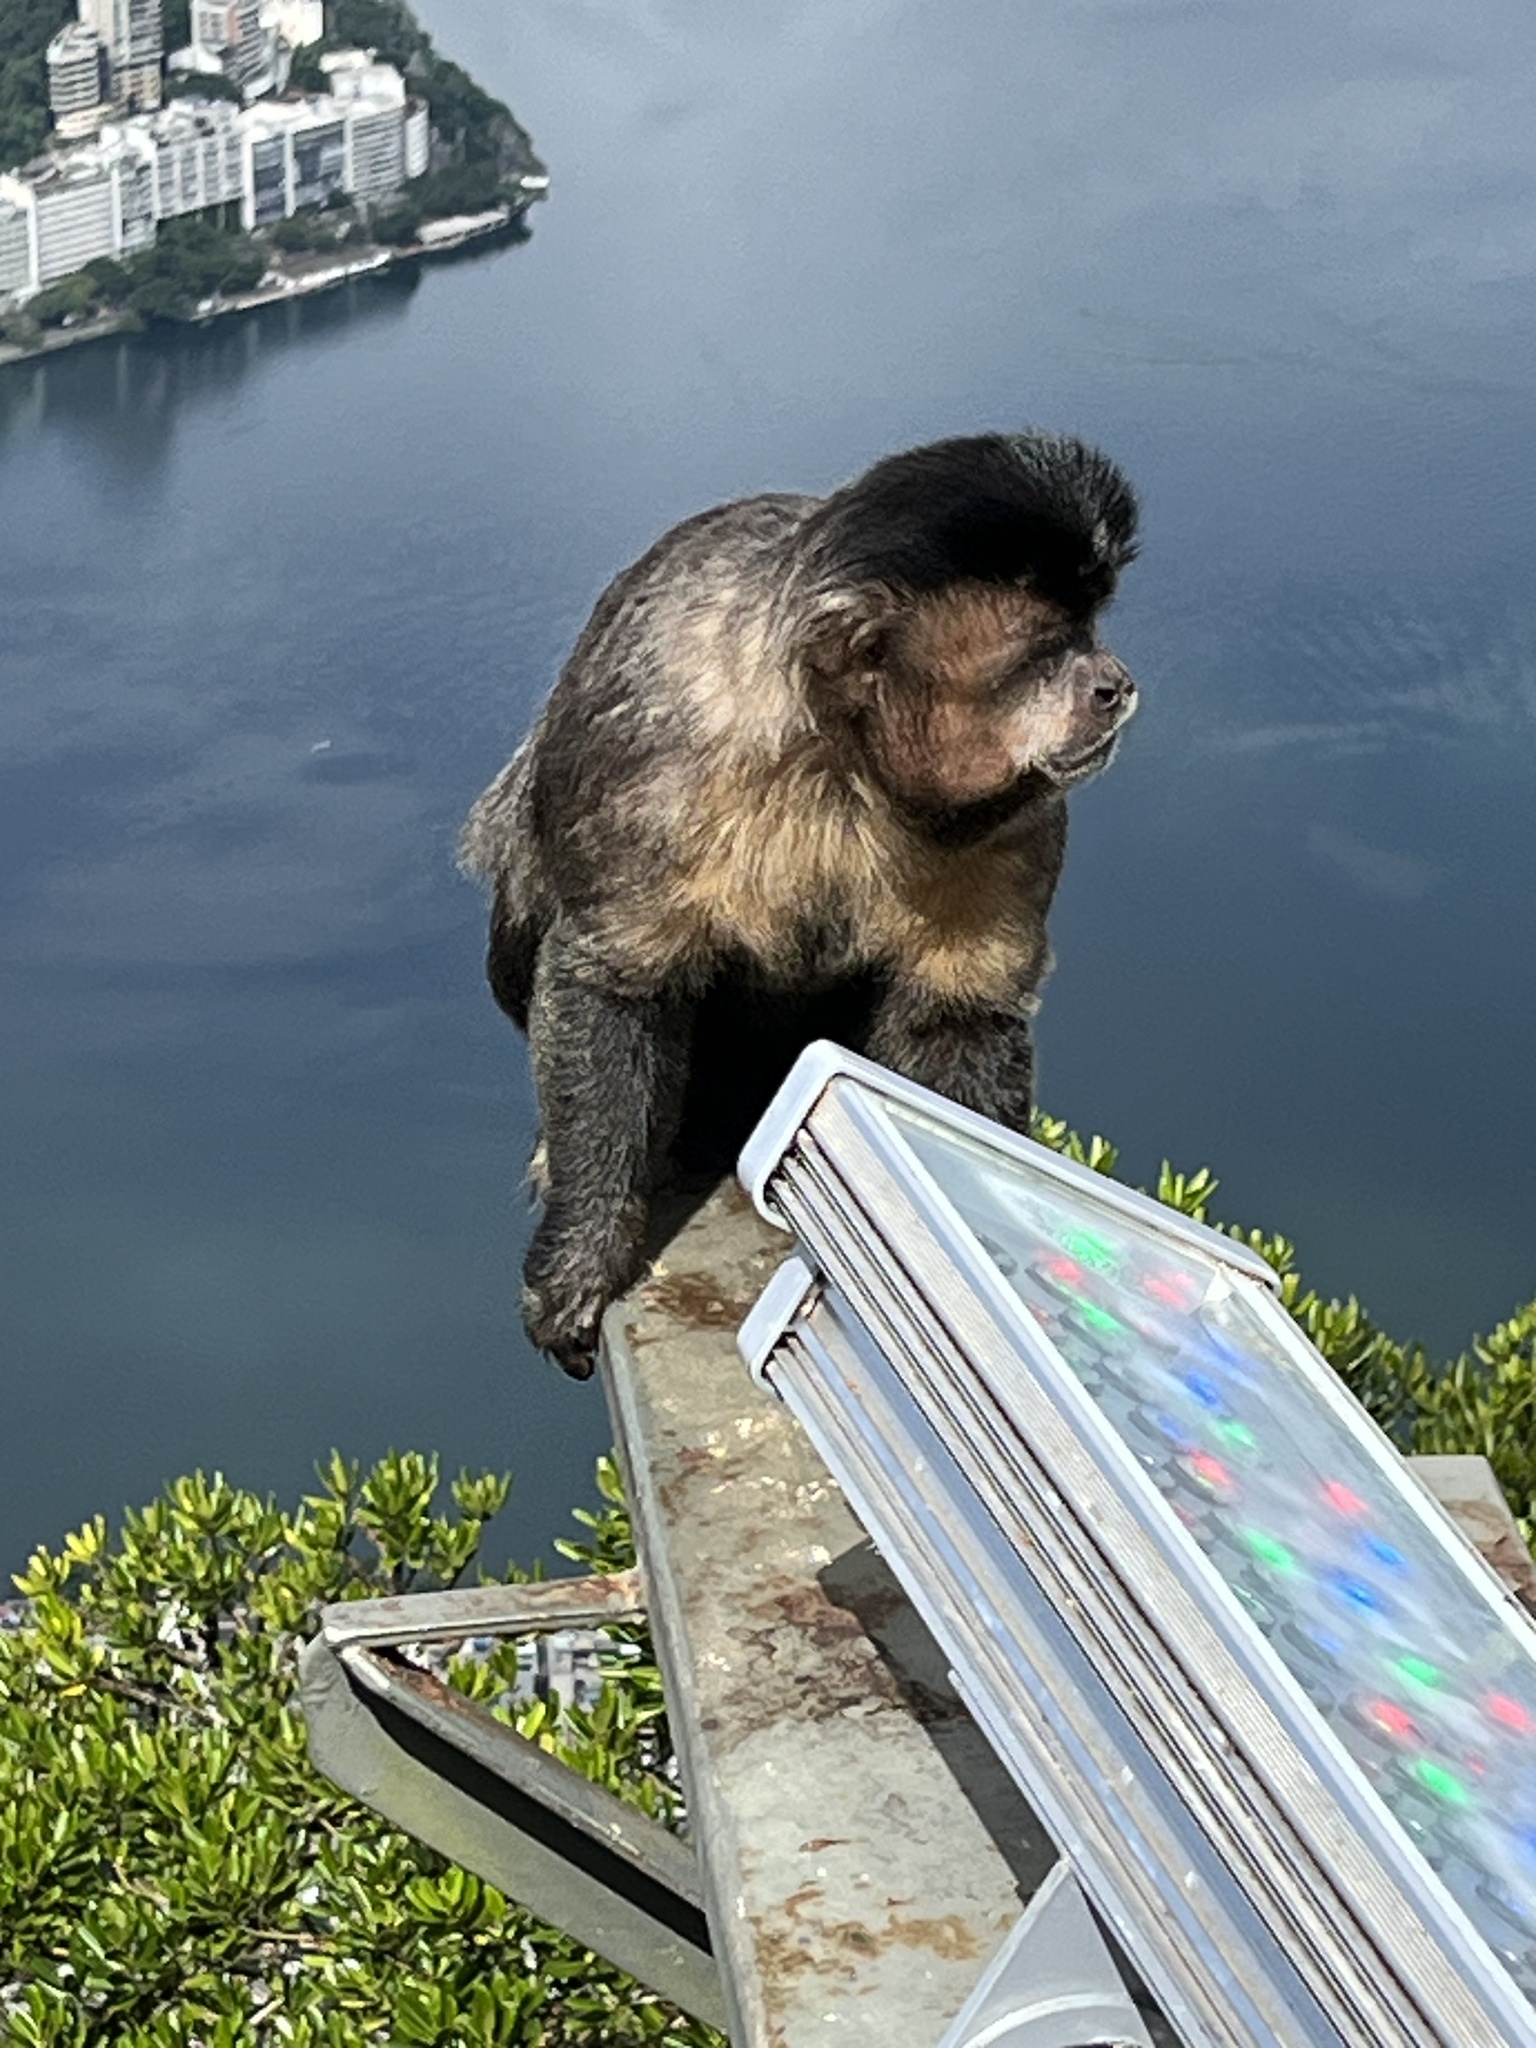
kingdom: Animalia
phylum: Chordata
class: Mammalia
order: Primates
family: Cebidae
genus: Sapajus
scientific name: Sapajus nigritus
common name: Black capuchin
